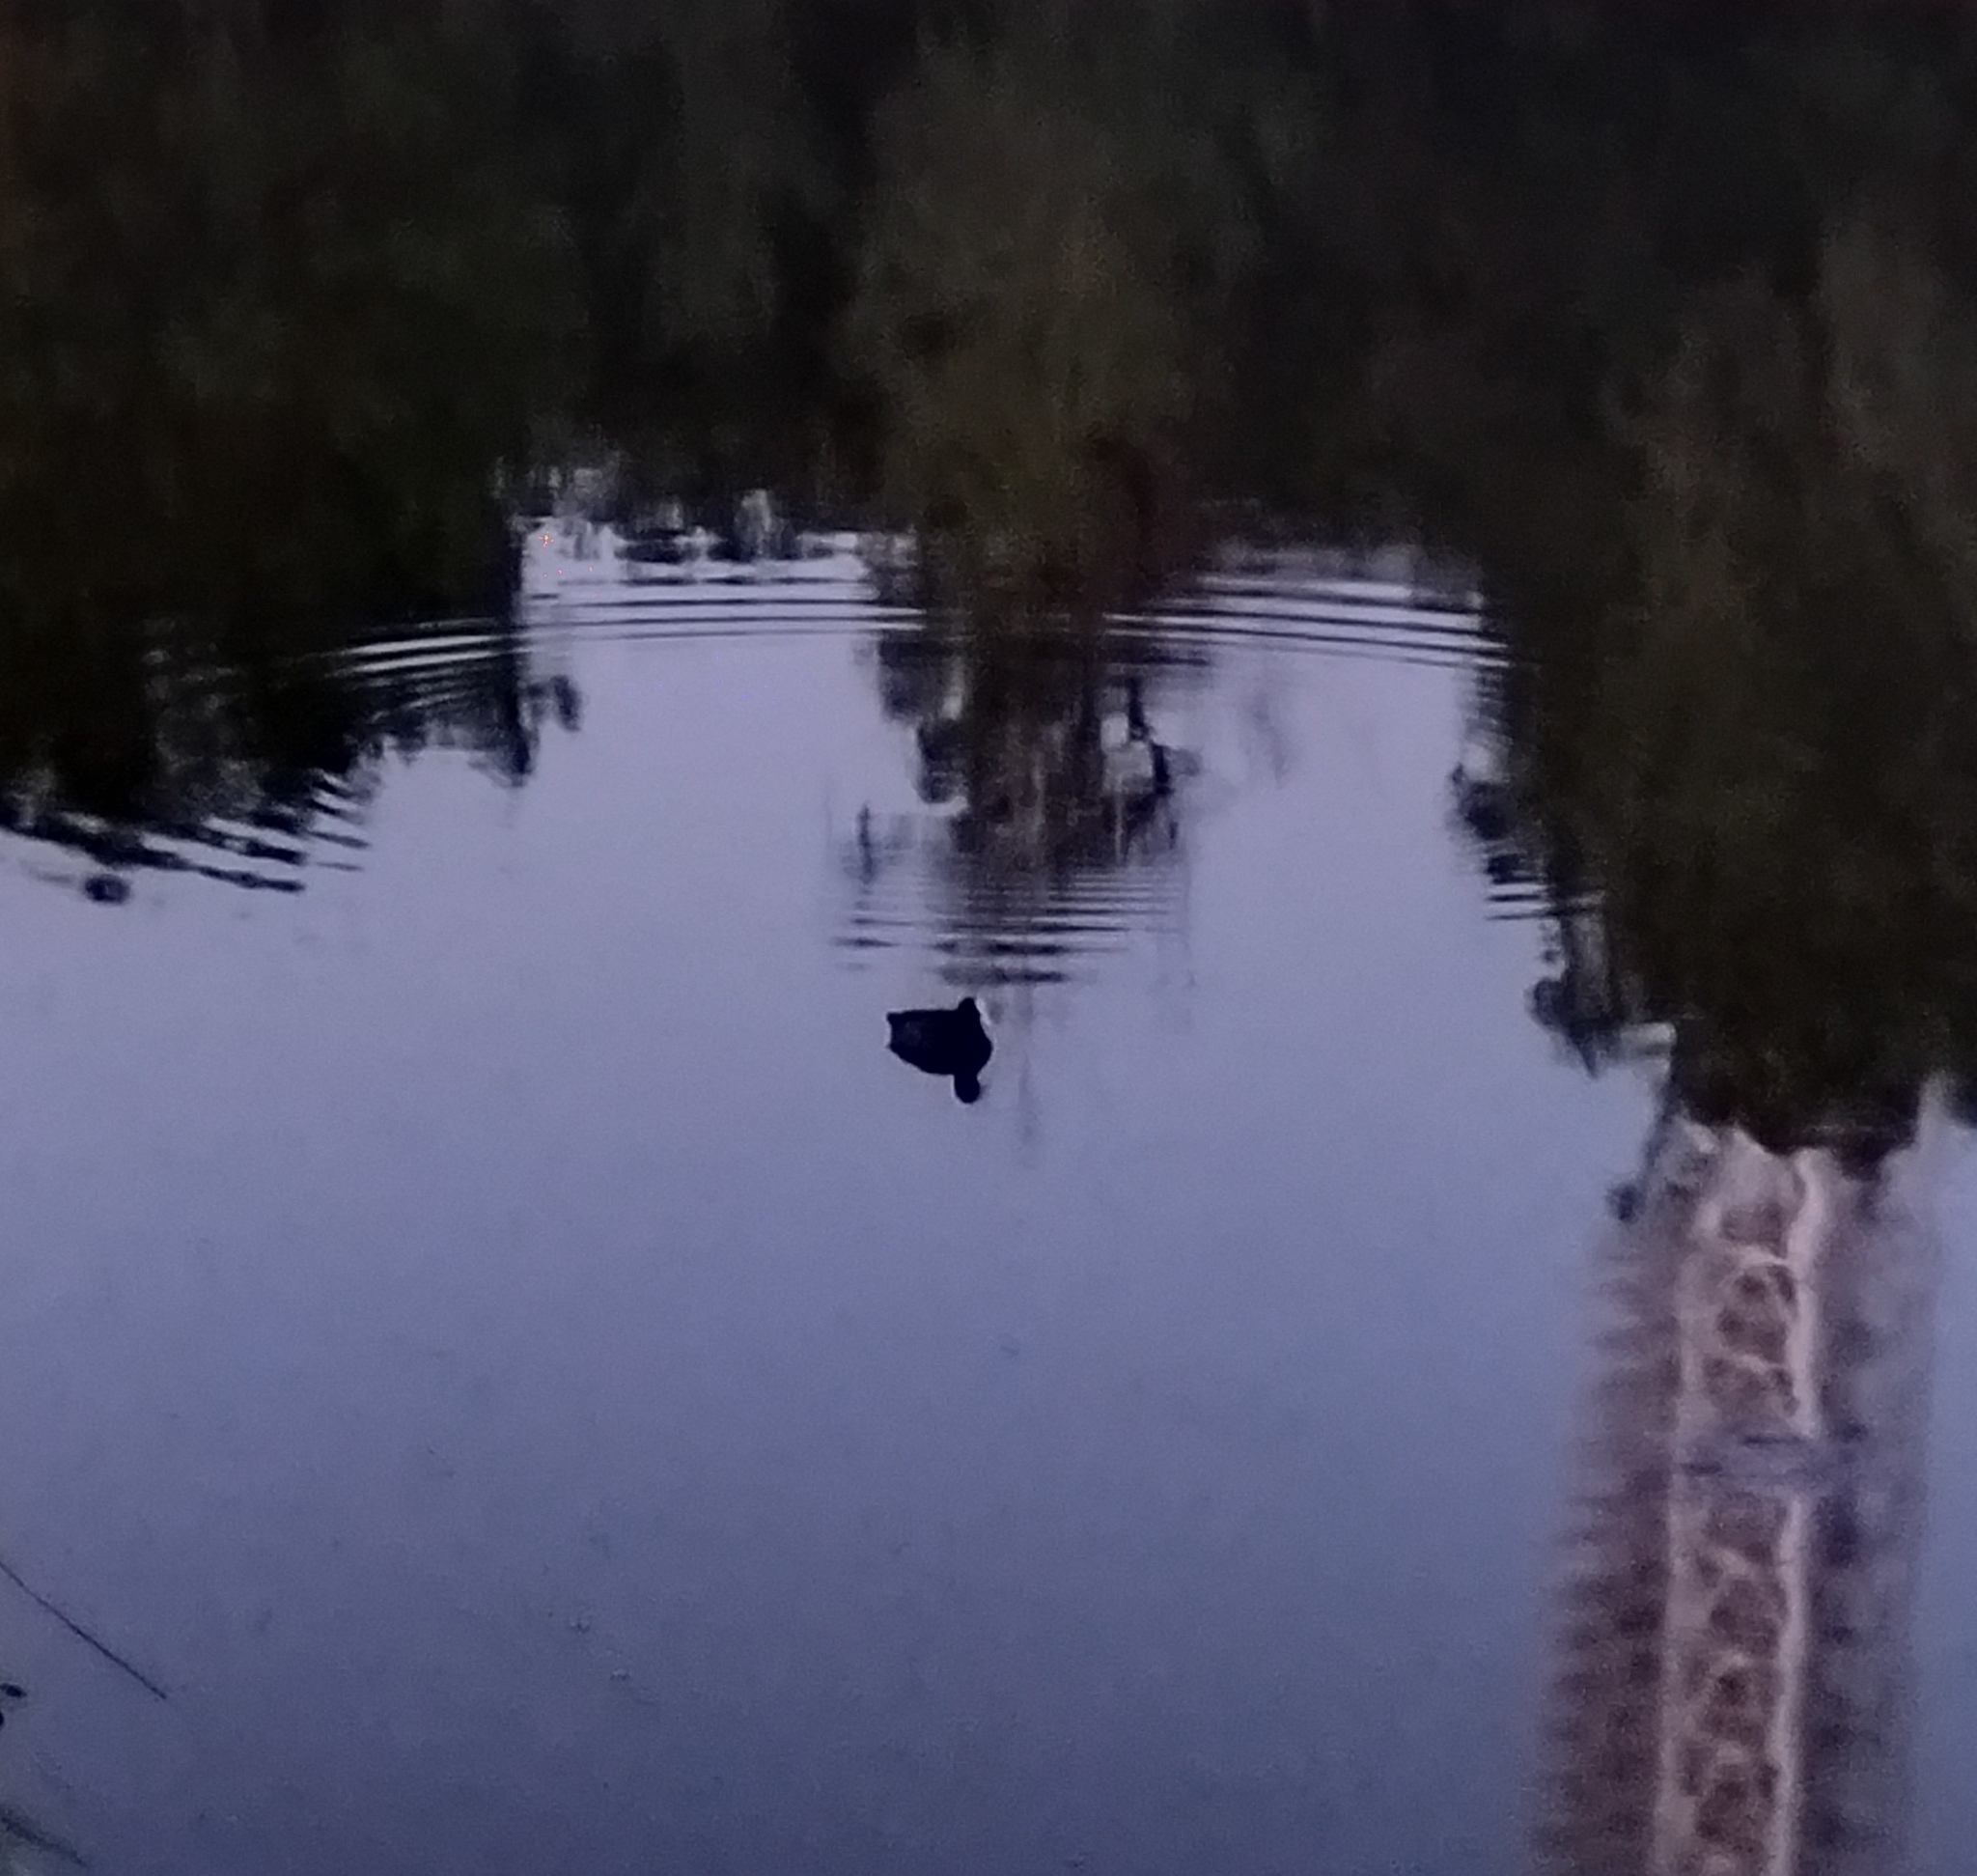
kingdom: Animalia
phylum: Chordata
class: Aves
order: Gruiformes
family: Rallidae
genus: Fulica
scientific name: Fulica atra
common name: Eurasian coot
